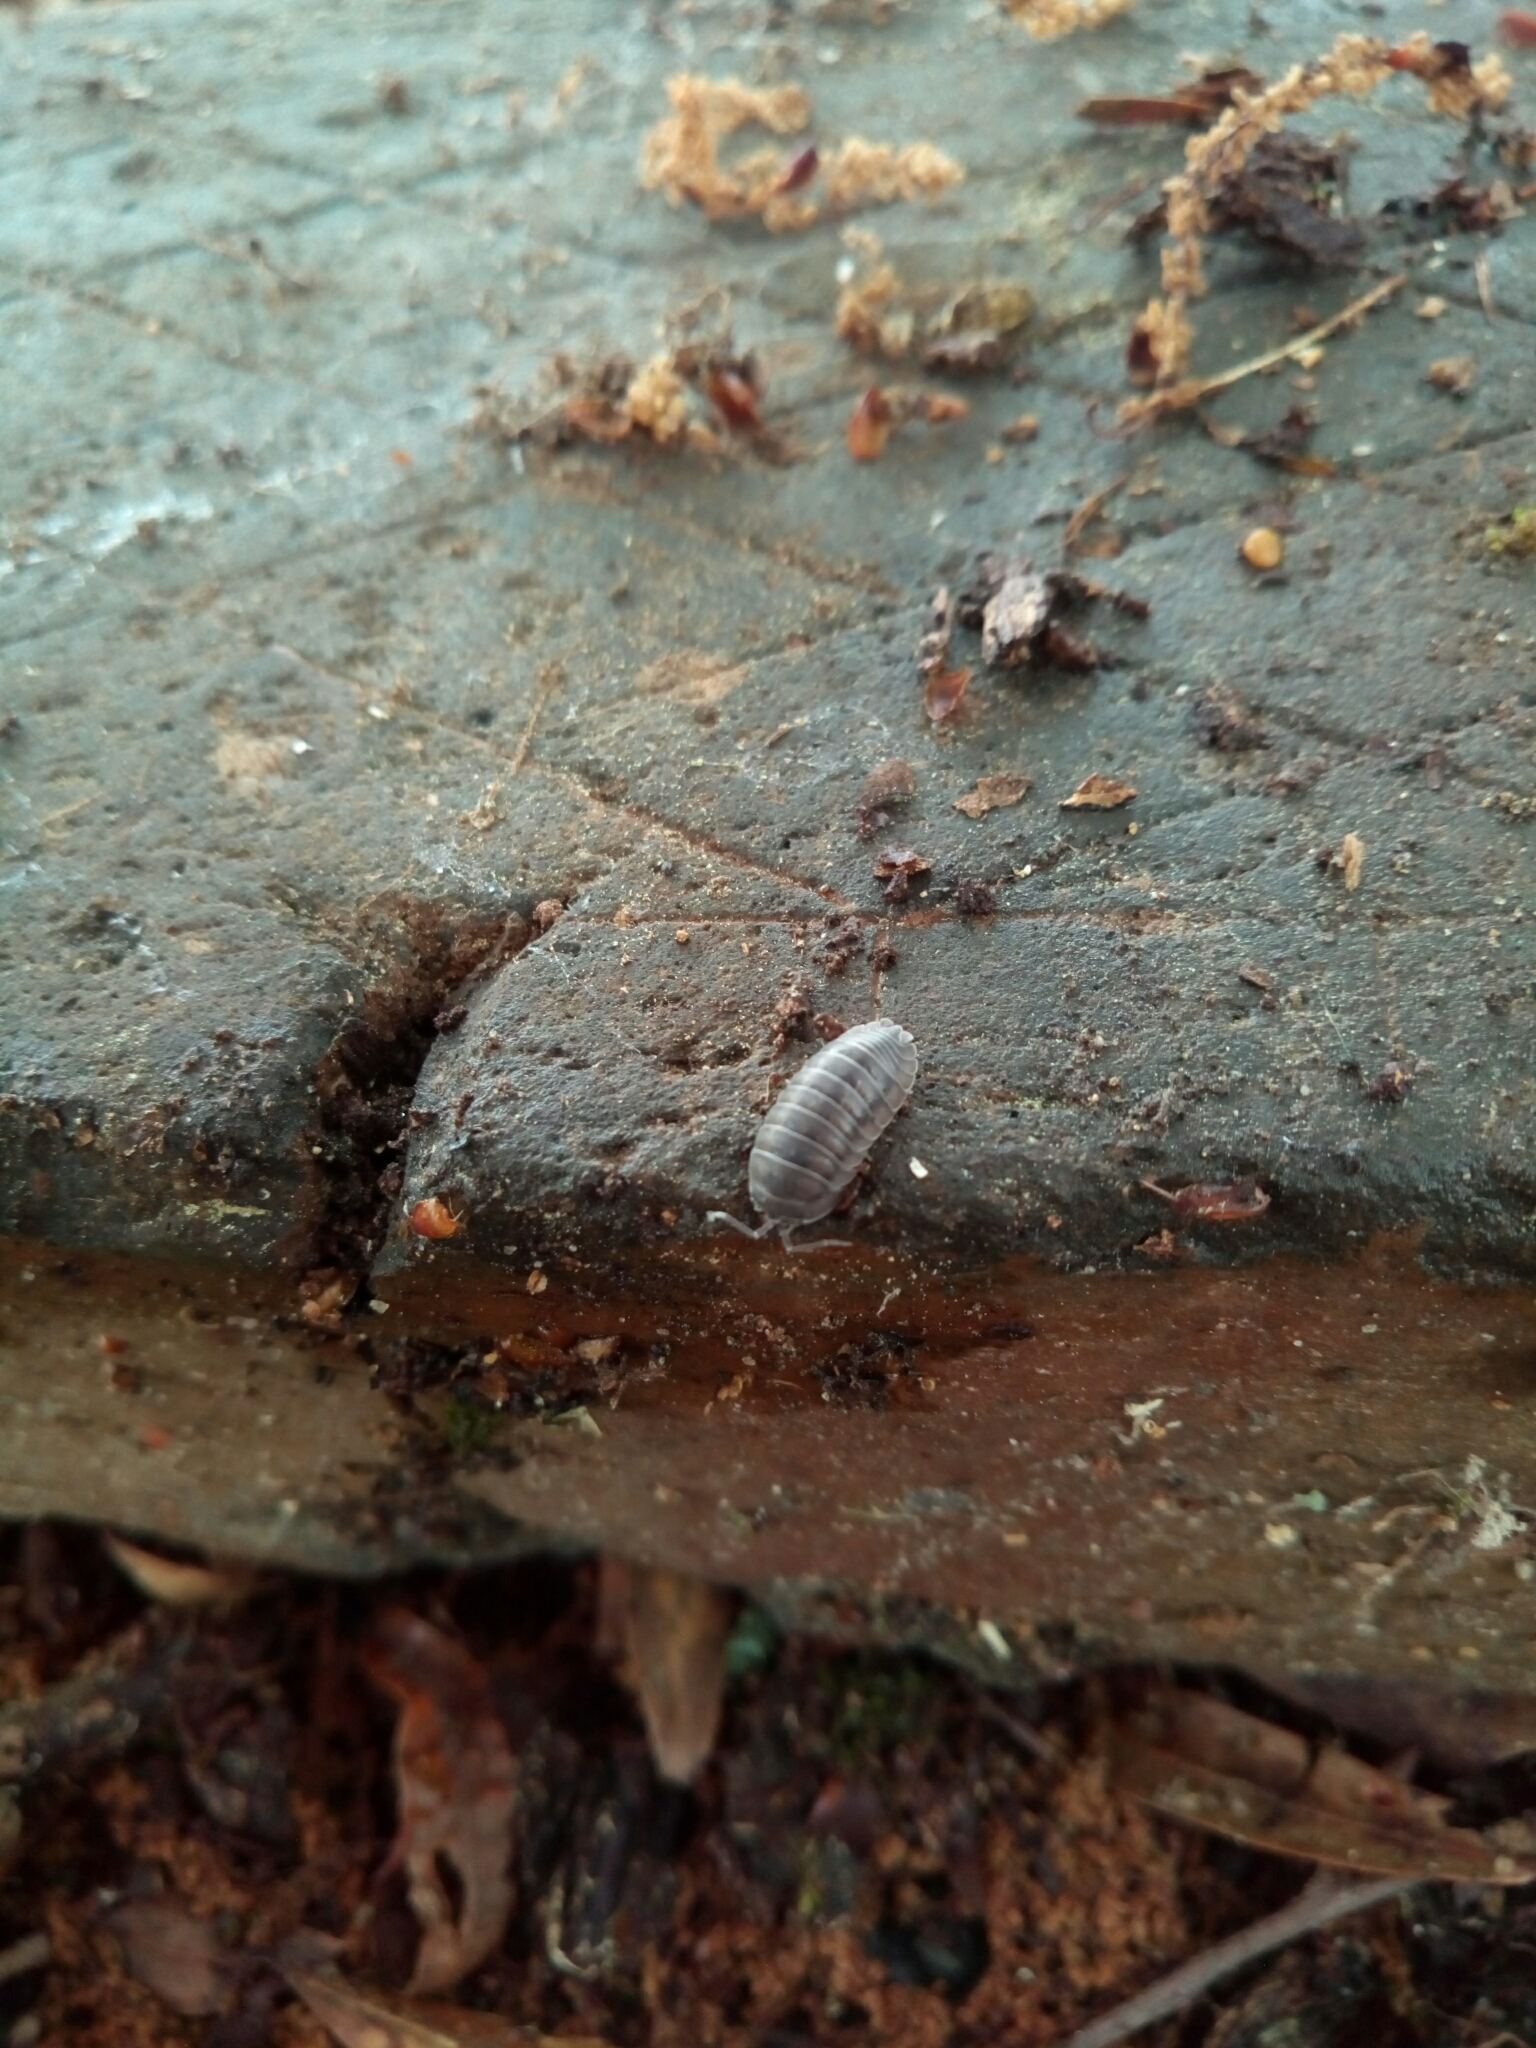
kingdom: Animalia
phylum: Arthropoda
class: Malacostraca
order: Isopoda
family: Armadillidiidae
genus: Armadillidium
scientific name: Armadillidium nasatum
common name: Isopod
